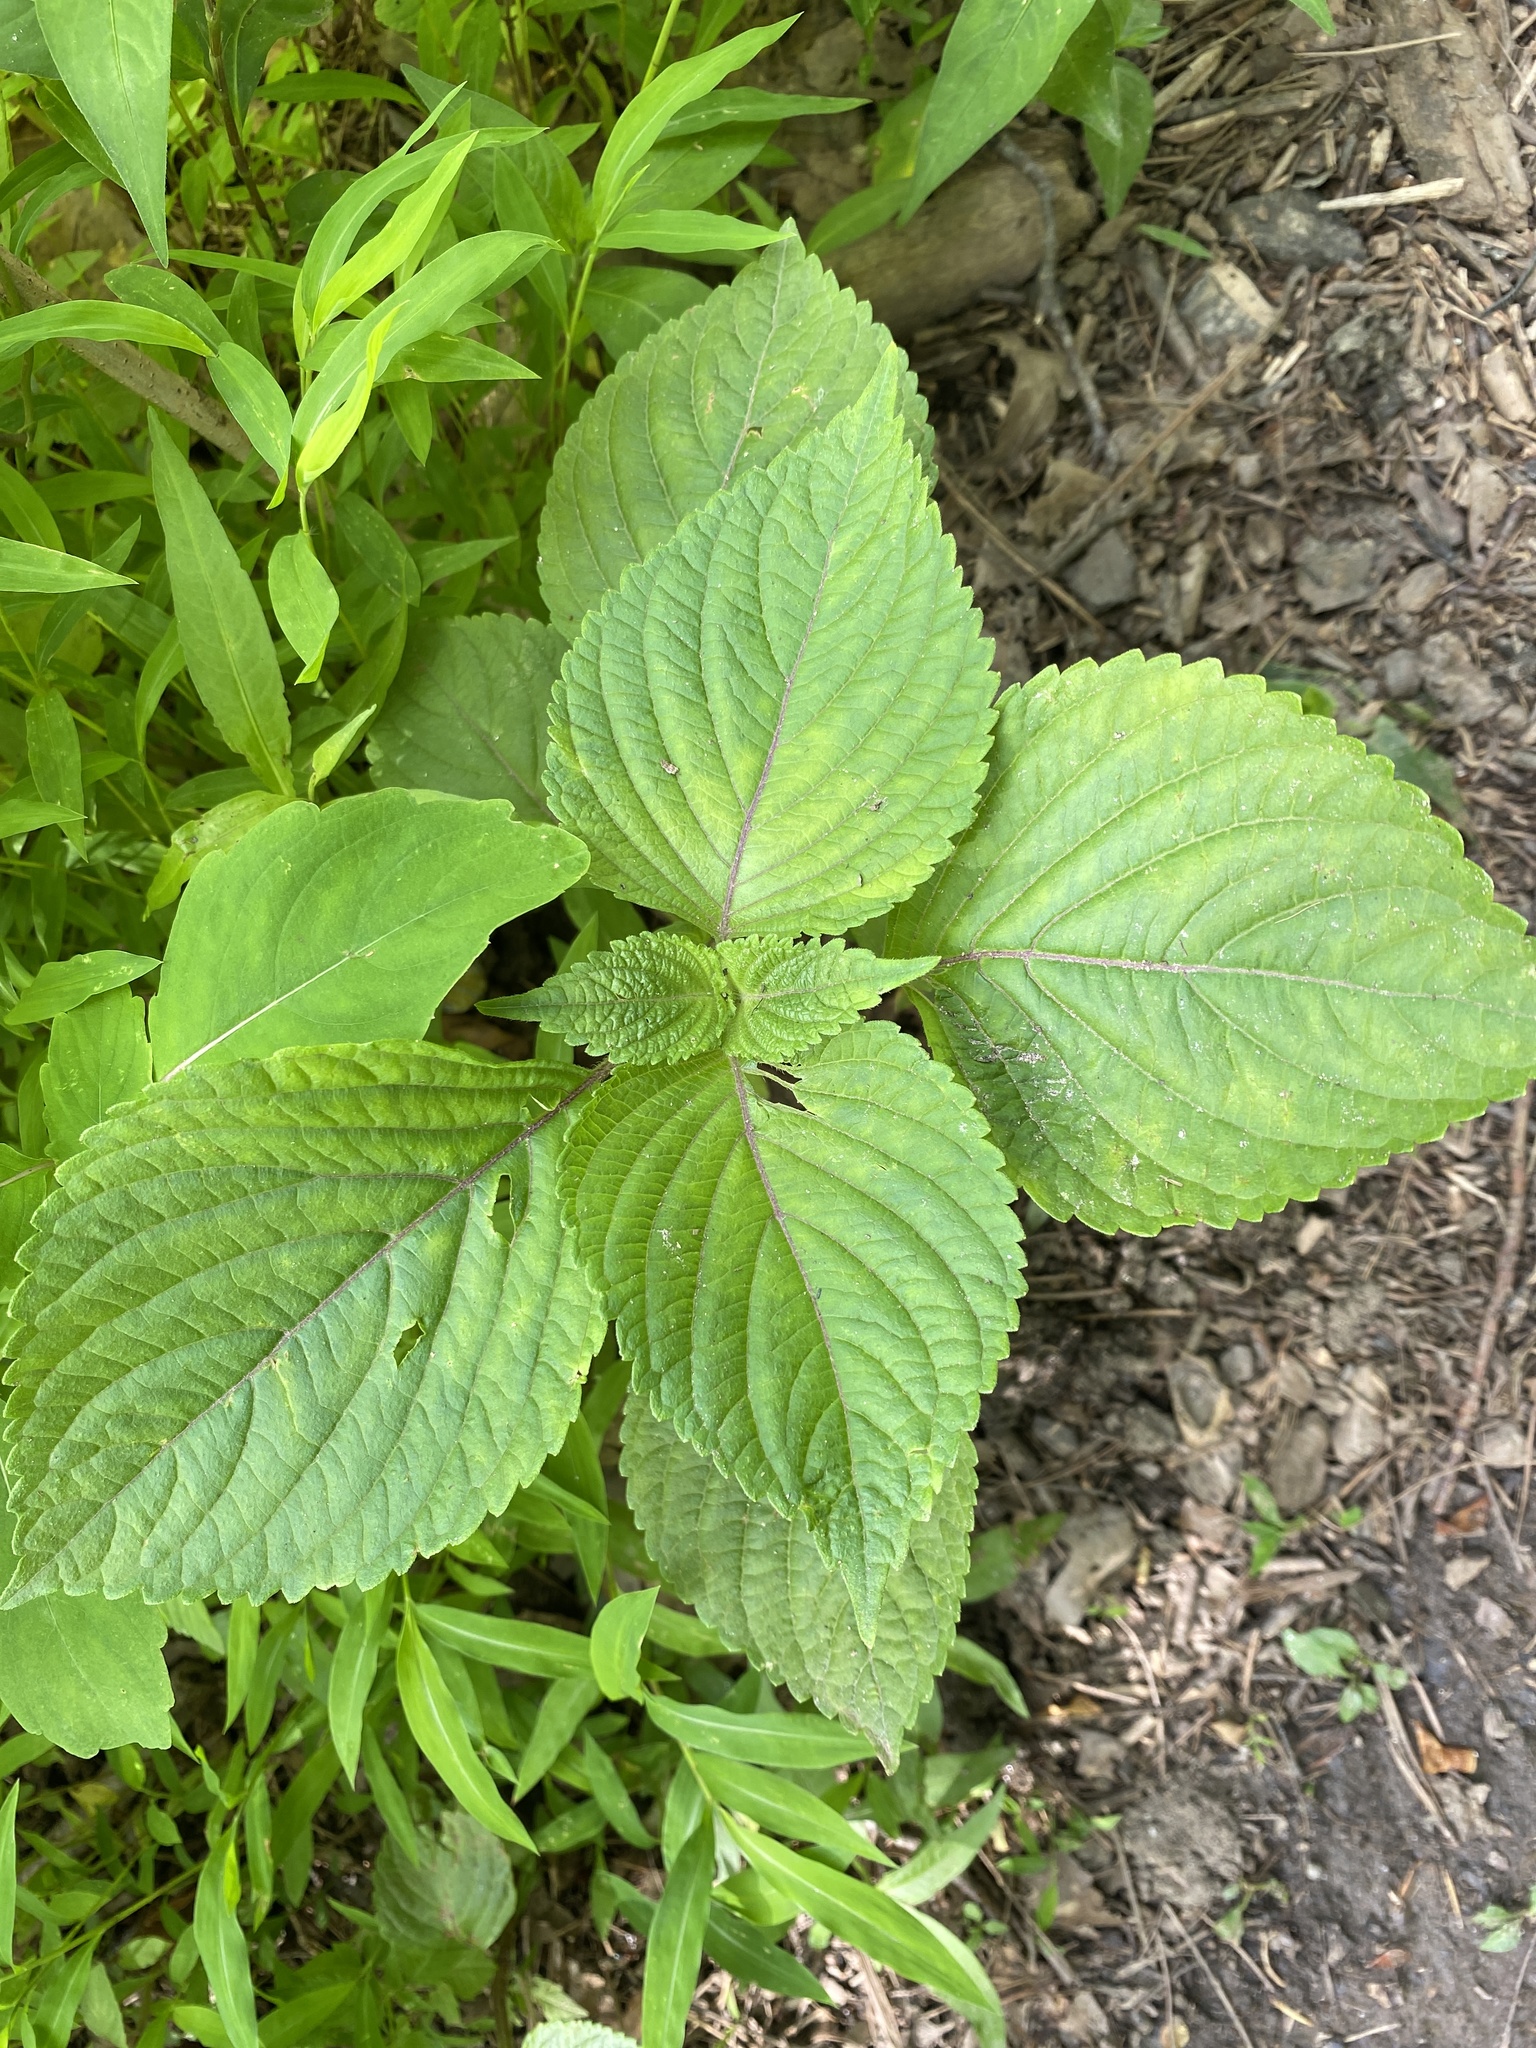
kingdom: Plantae
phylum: Tracheophyta
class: Magnoliopsida
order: Lamiales
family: Lamiaceae
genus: Perilla
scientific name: Perilla frutescens
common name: Perilla
